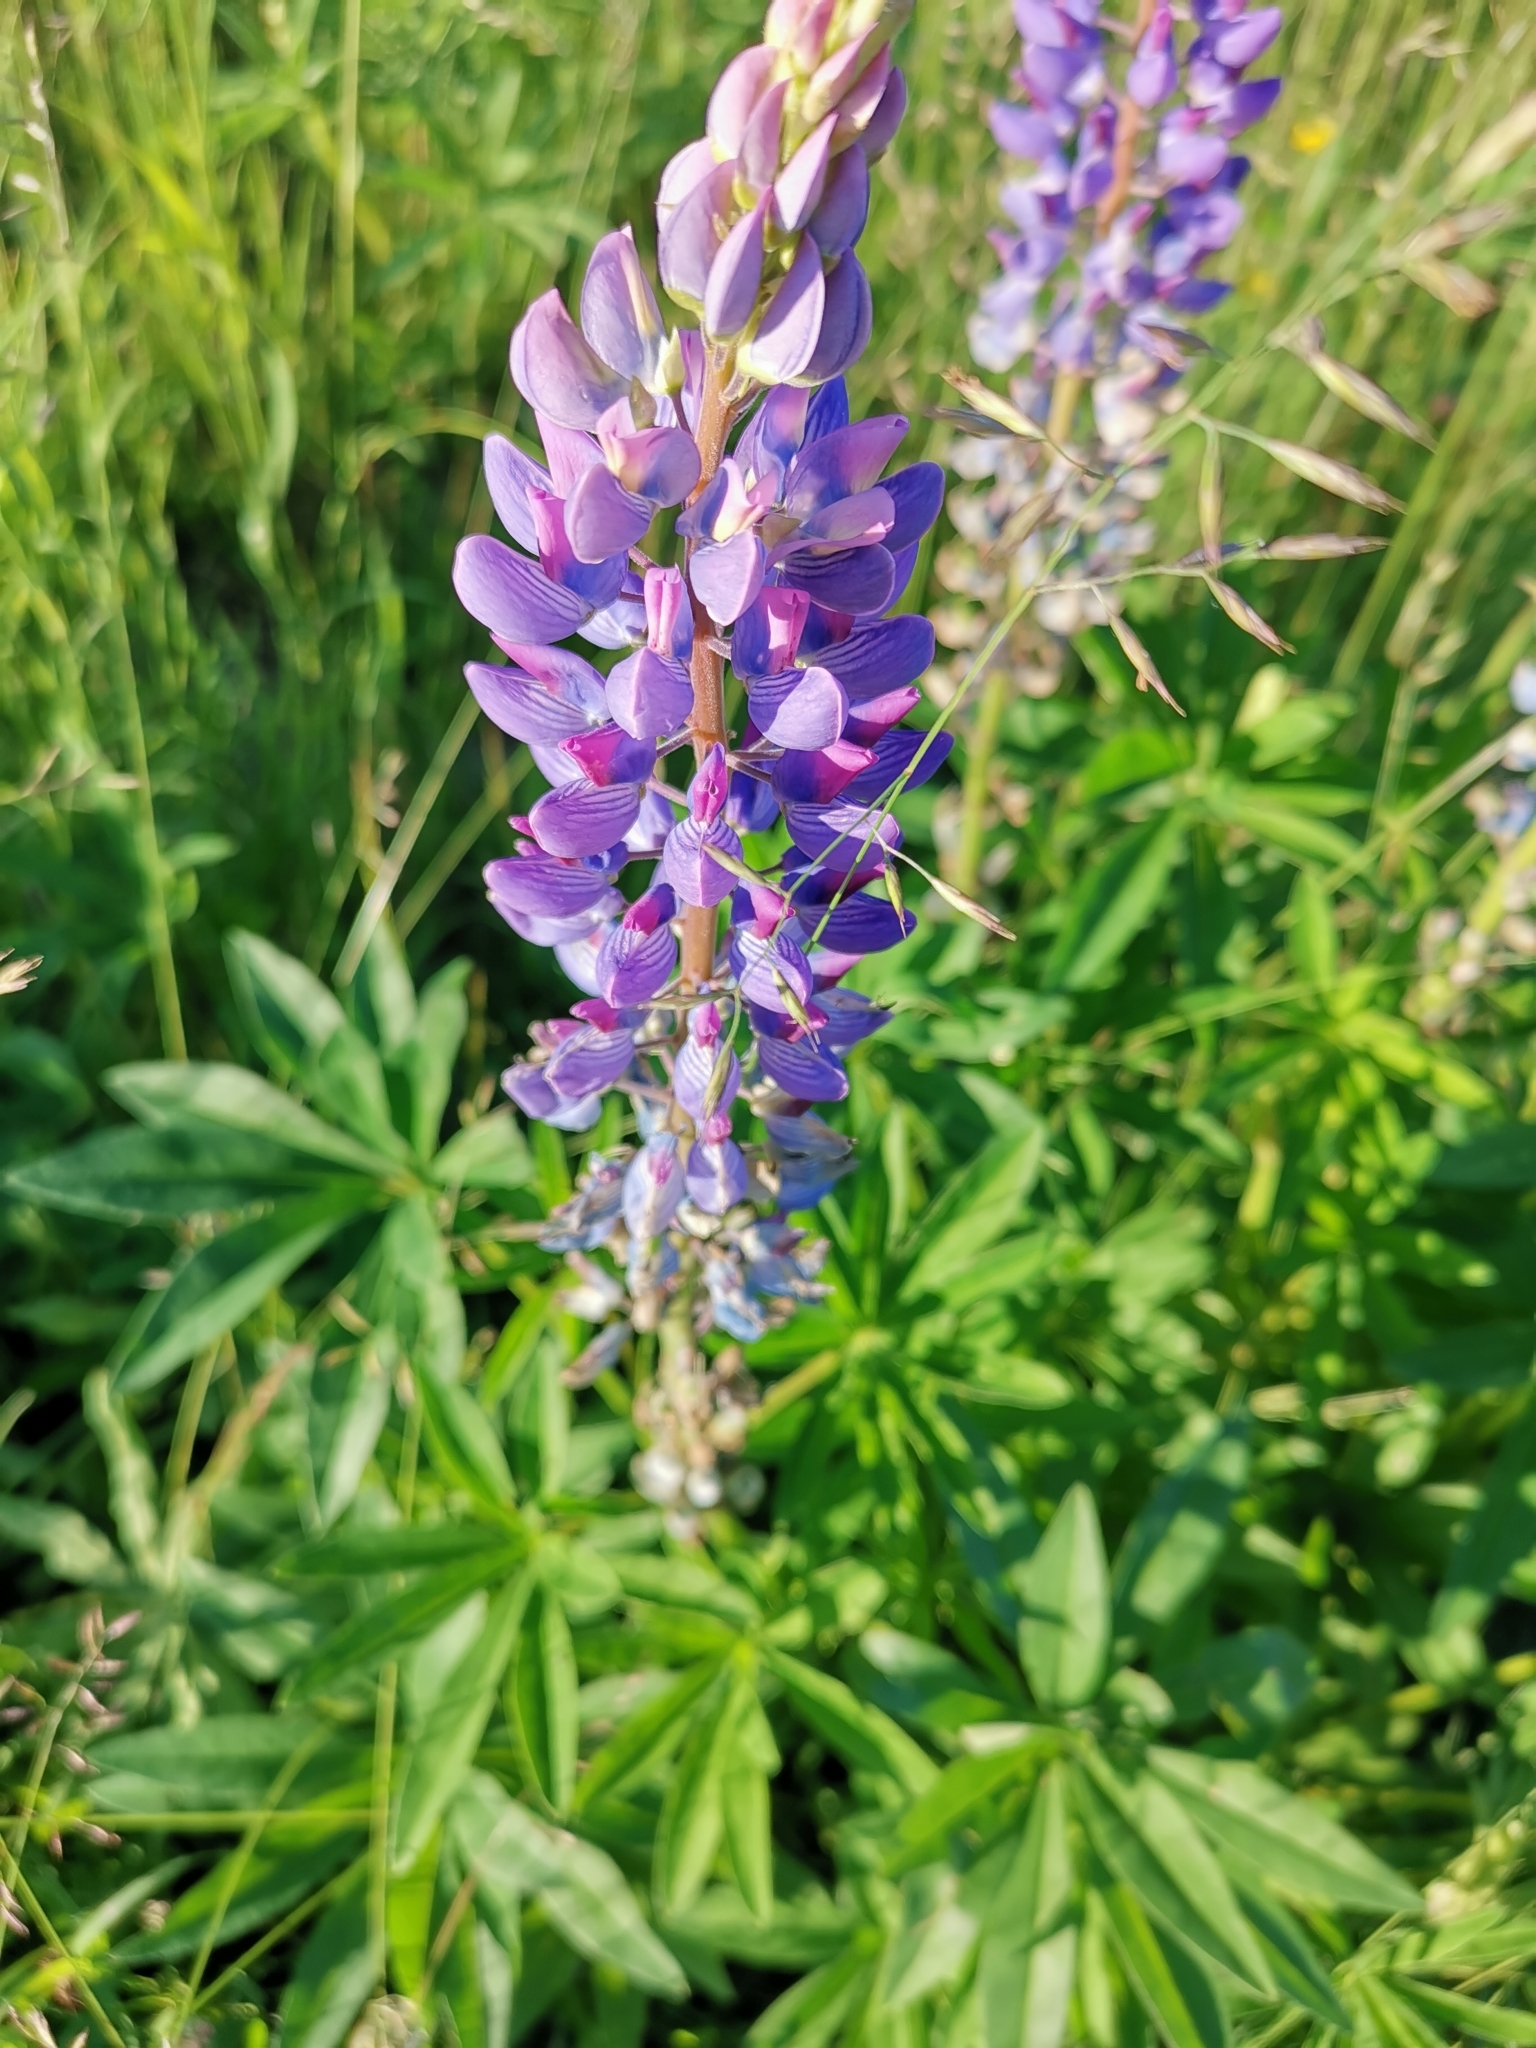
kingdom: Plantae
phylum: Tracheophyta
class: Magnoliopsida
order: Fabales
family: Fabaceae
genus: Lupinus
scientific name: Lupinus polyphyllus
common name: Garden lupin
